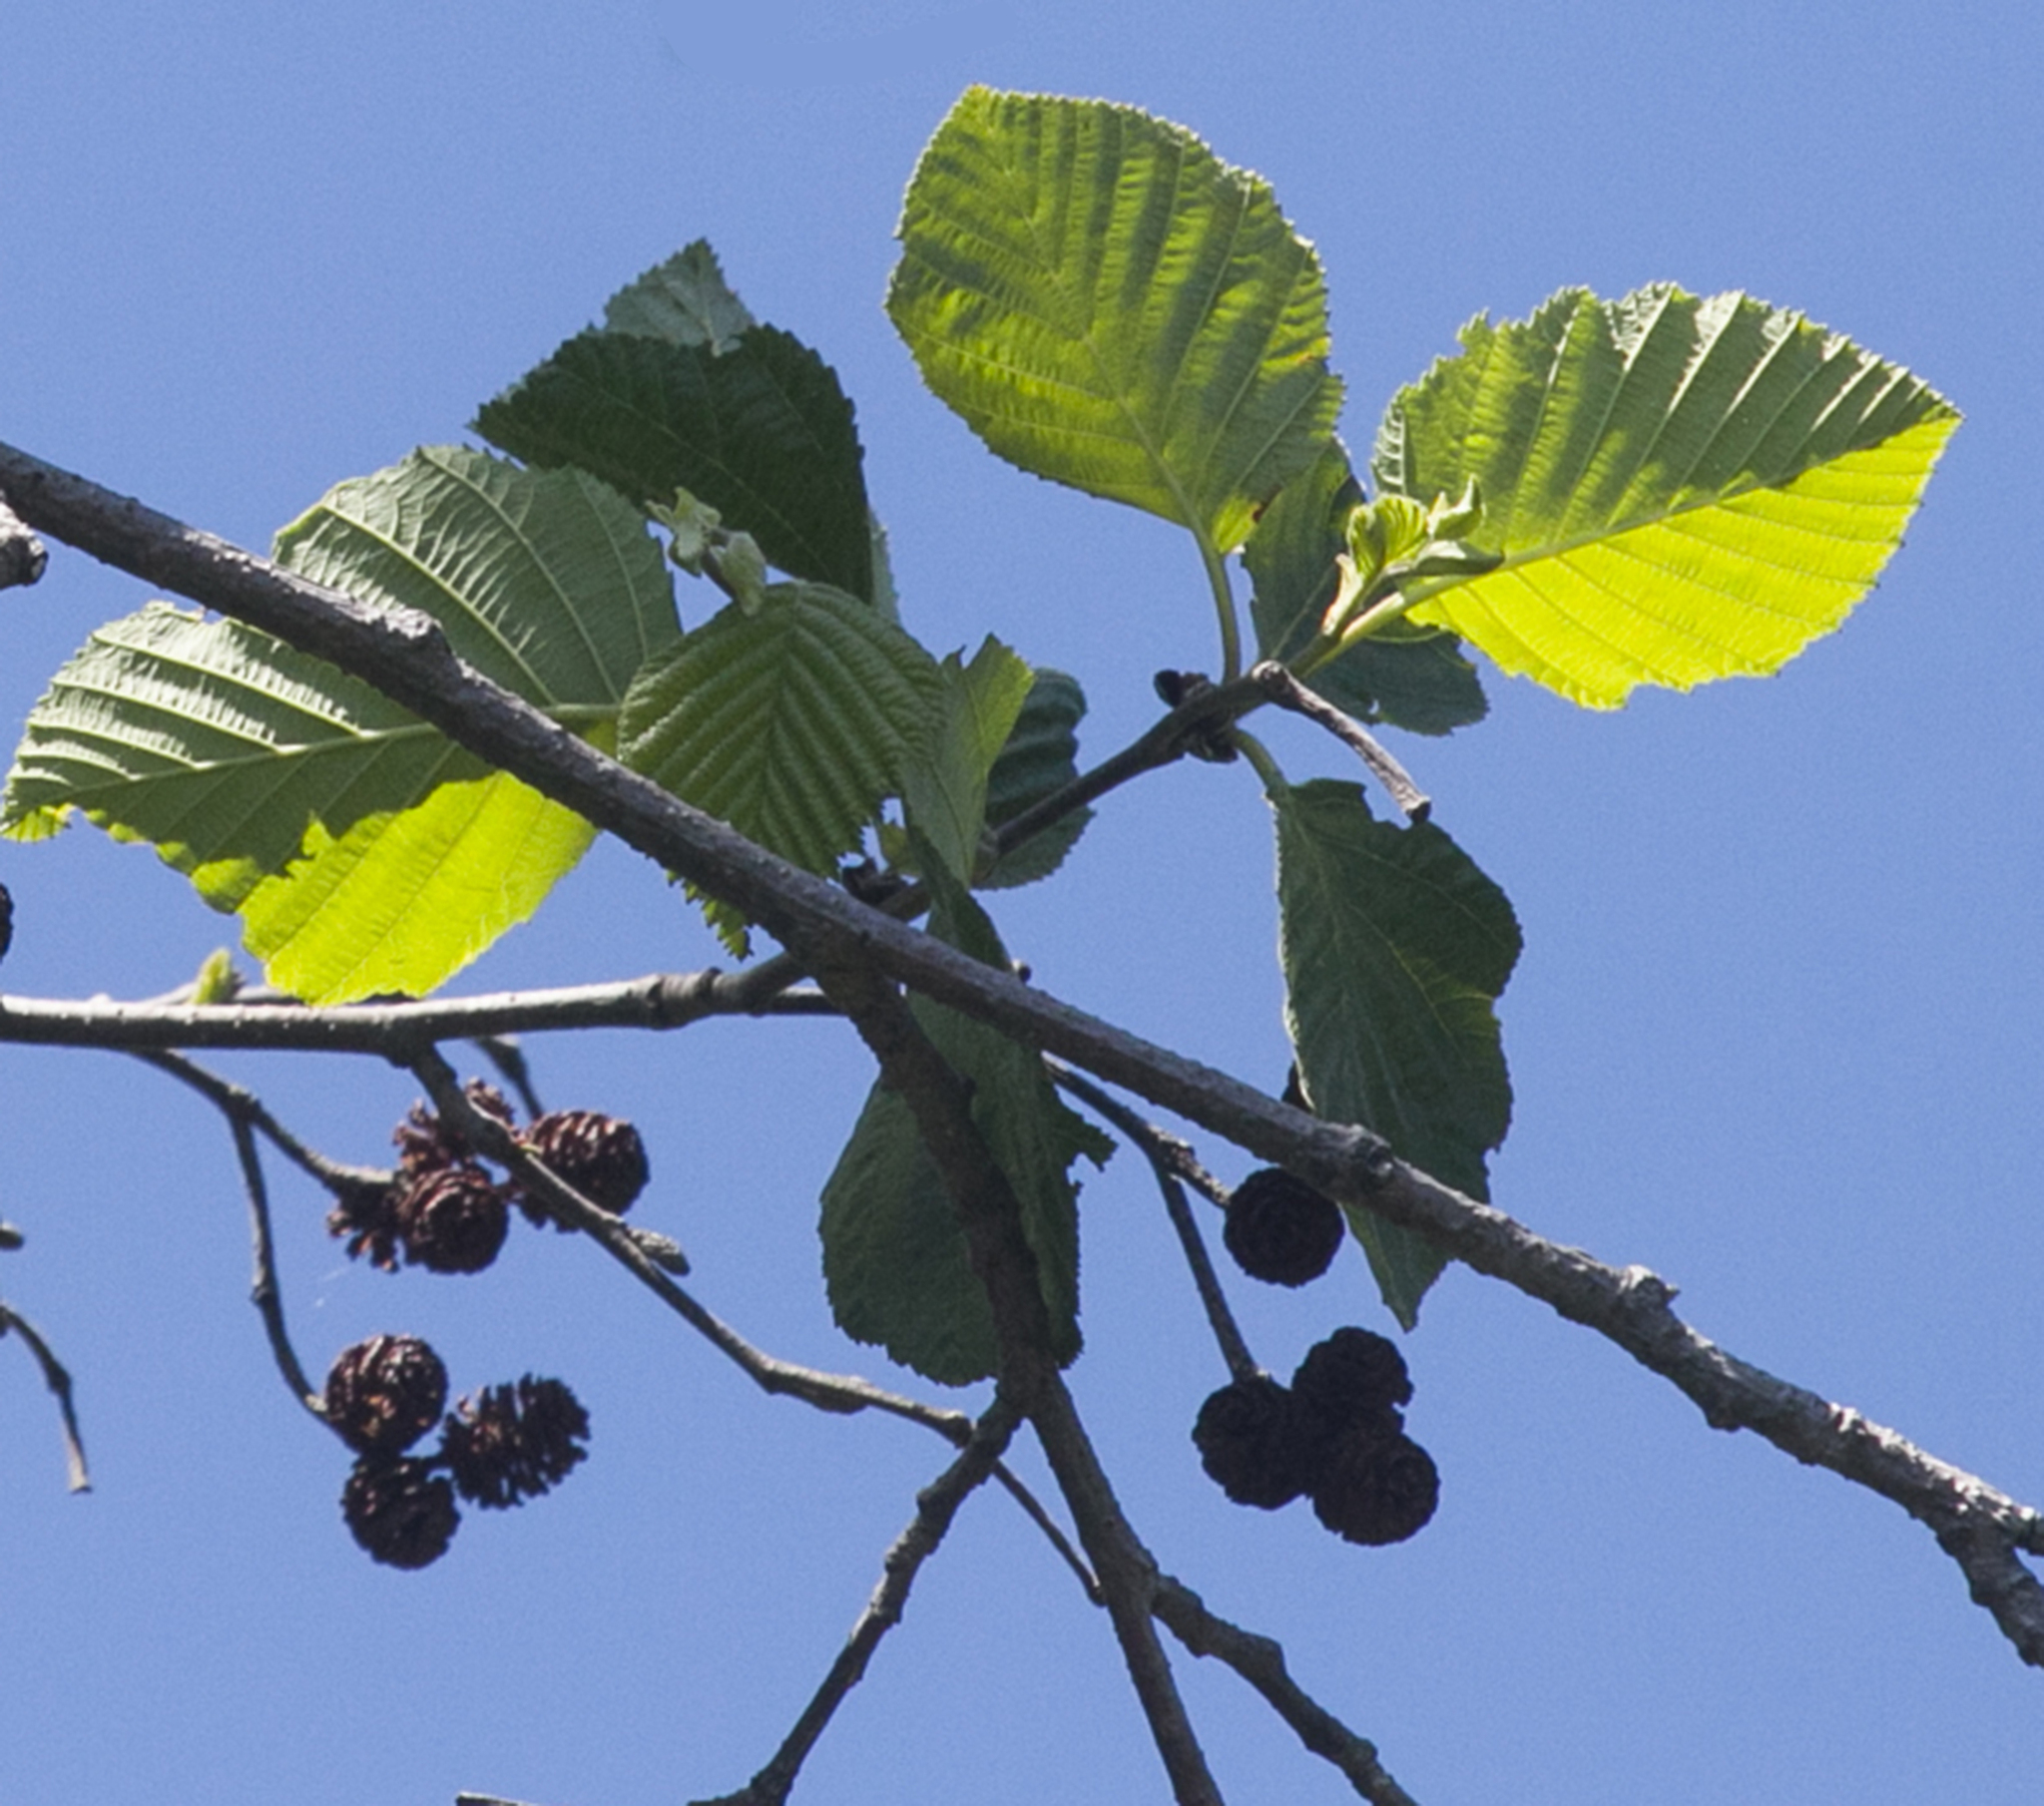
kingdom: Plantae
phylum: Tracheophyta
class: Magnoliopsida
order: Fagales
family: Betulaceae
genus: Alnus
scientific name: Alnus incana
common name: Grey alder
